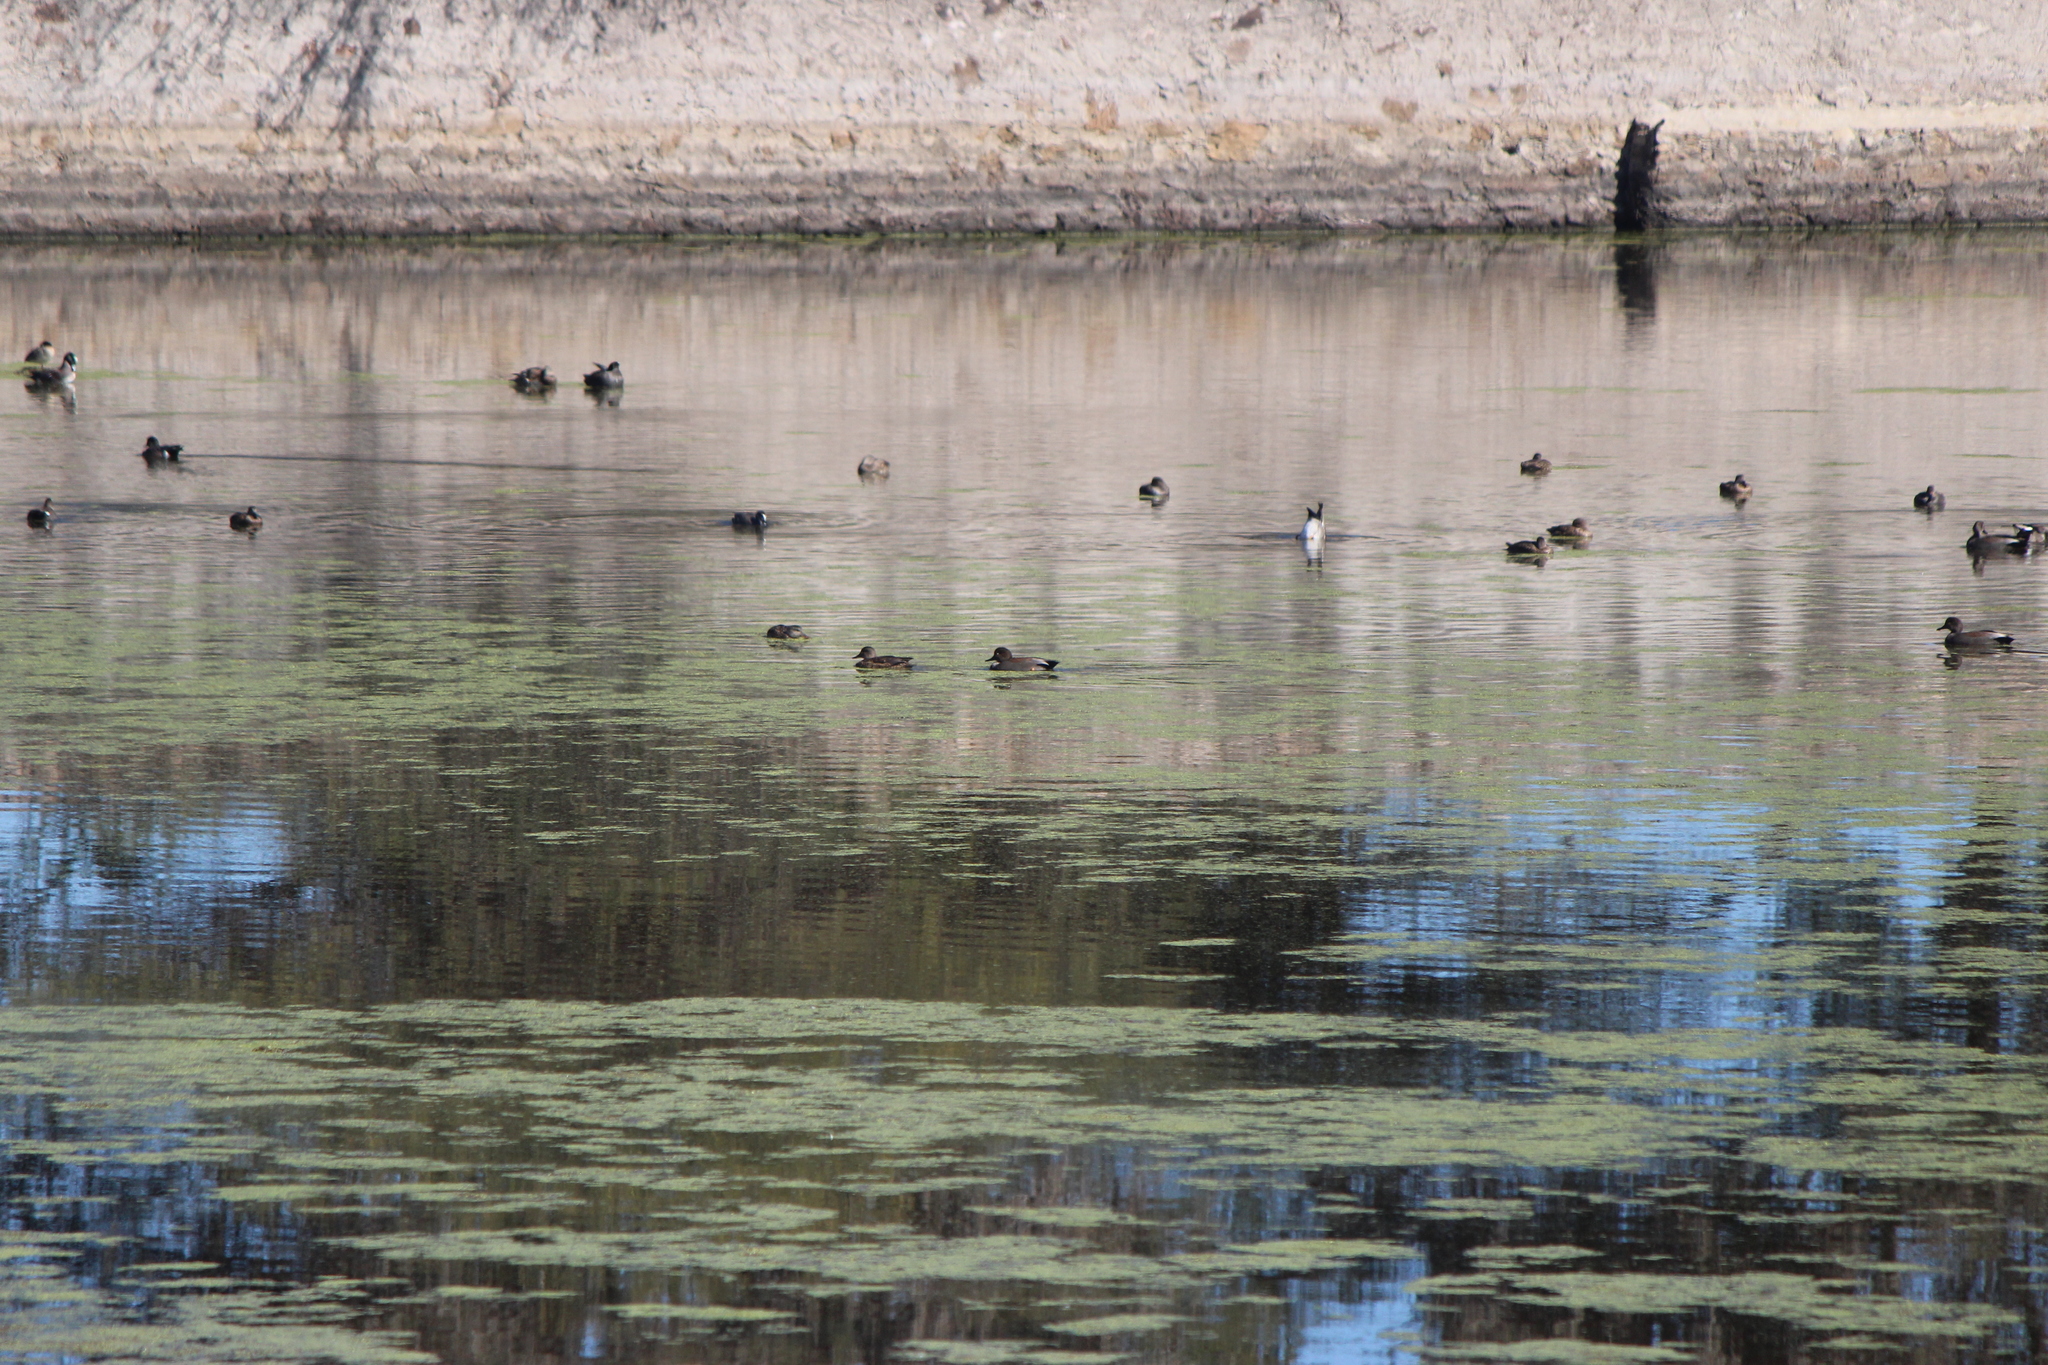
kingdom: Animalia
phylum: Chordata
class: Aves
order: Anseriformes
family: Anatidae
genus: Anas
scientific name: Anas crecca
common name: Eurasian teal
